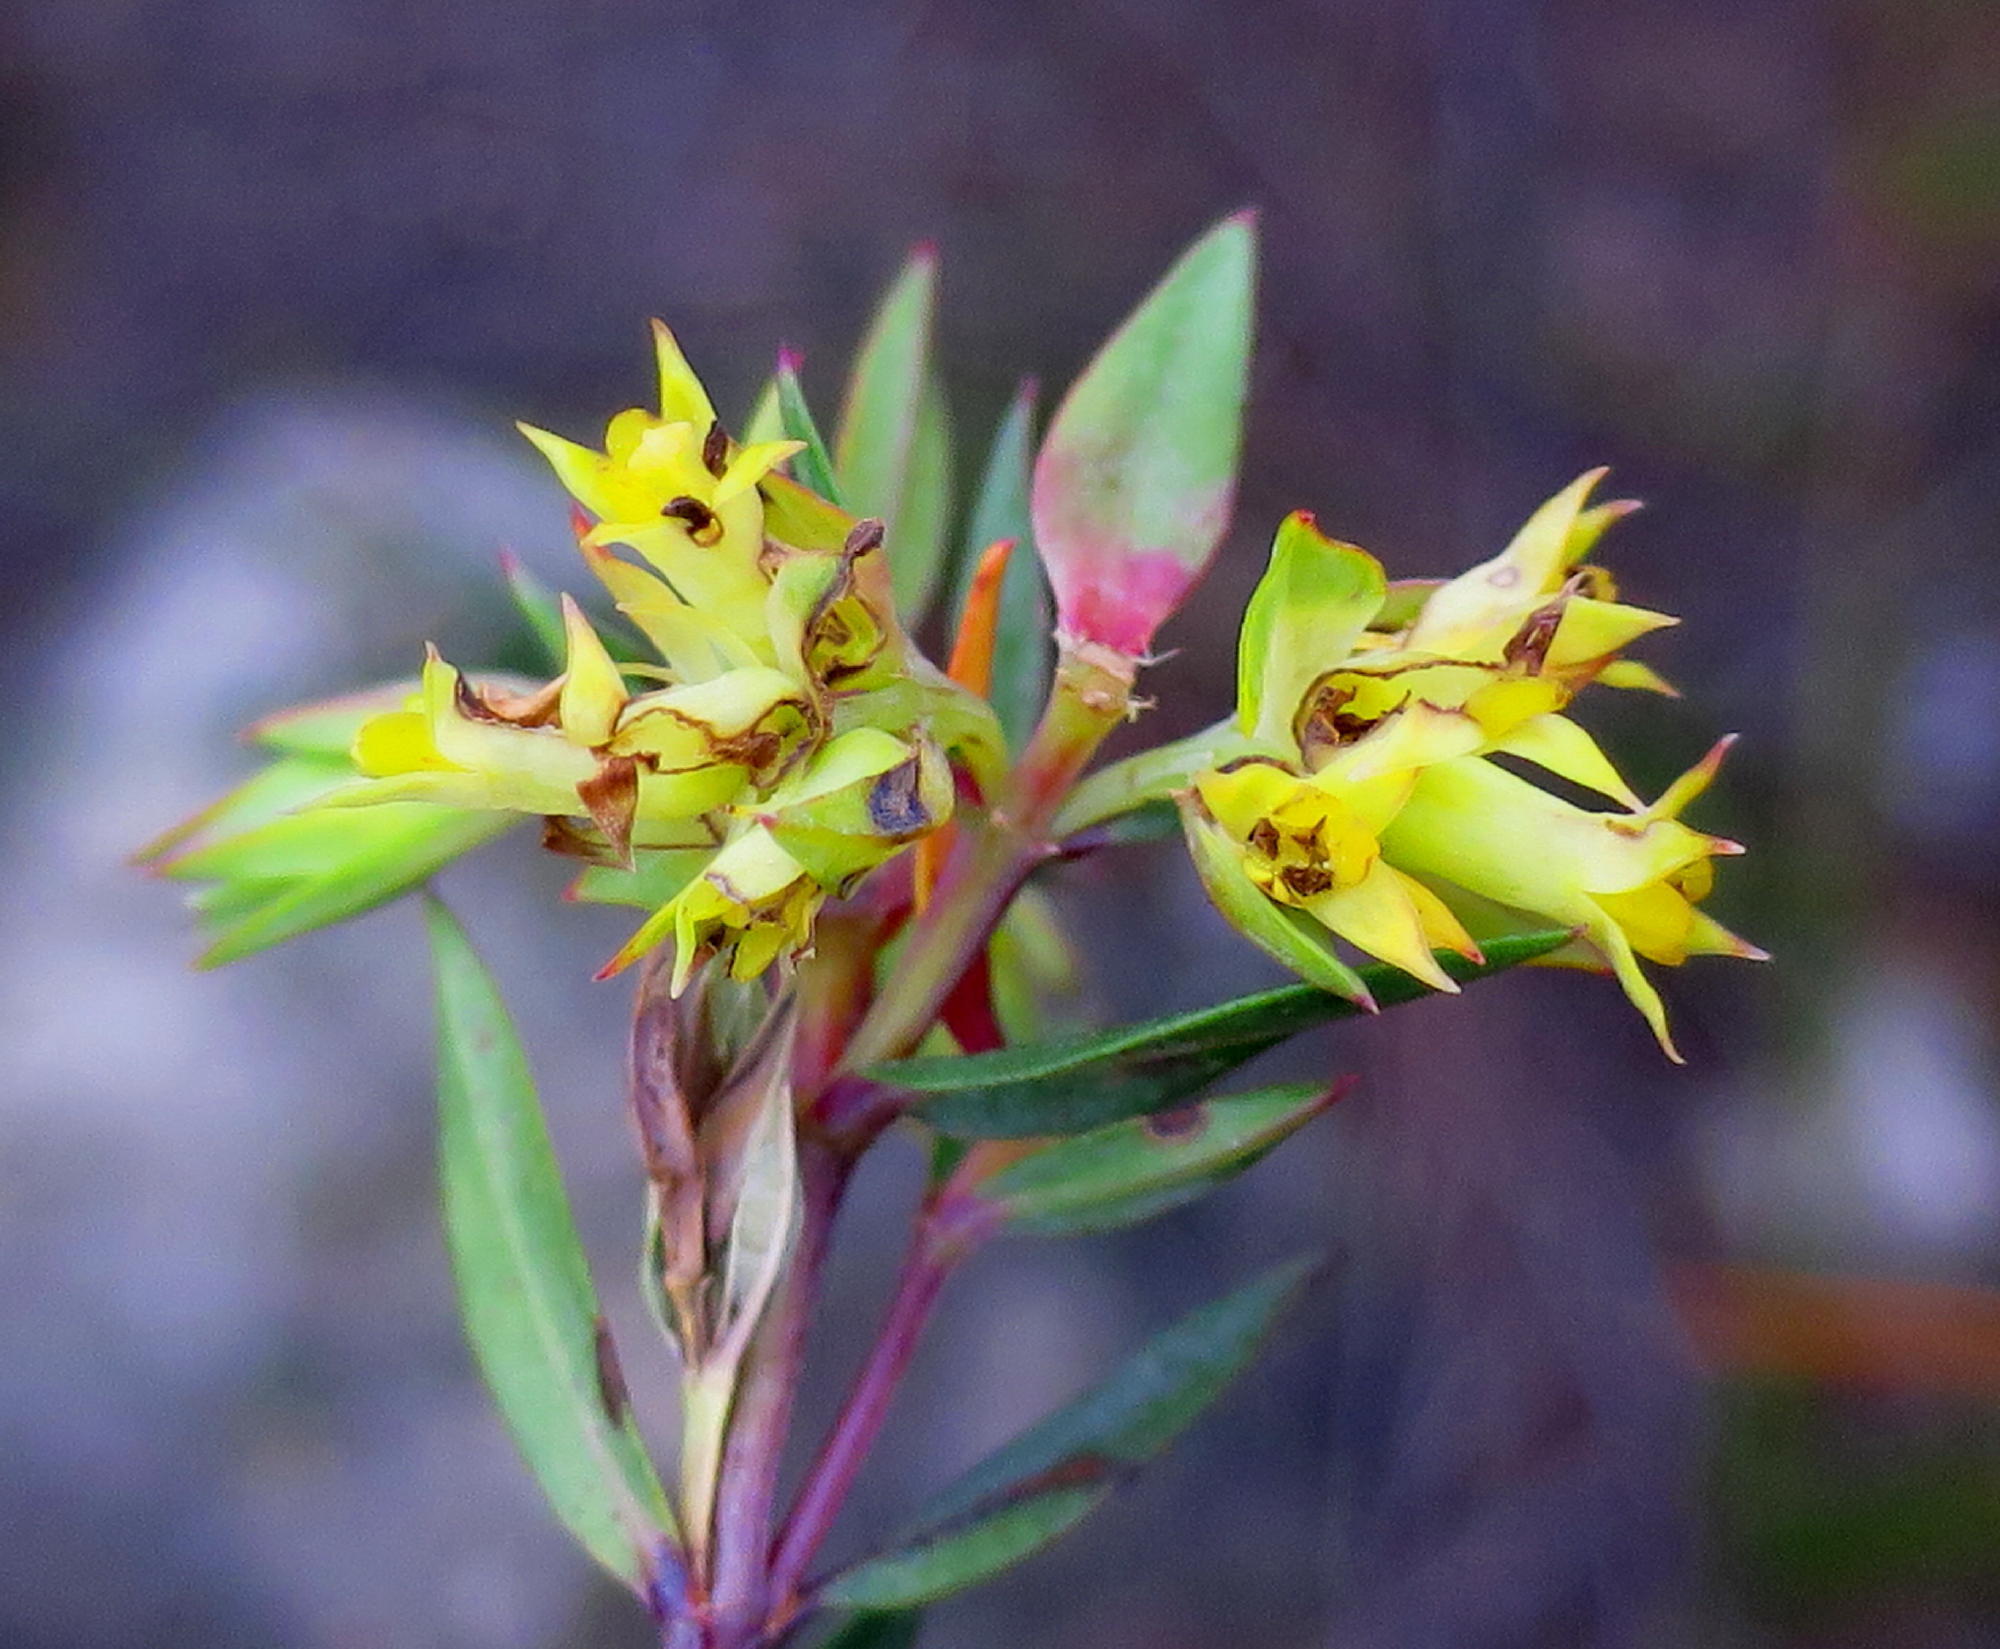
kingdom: Plantae
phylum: Tracheophyta
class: Magnoliopsida
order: Myrtales
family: Penaeaceae
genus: Penaea
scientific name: Penaea acutifolia
